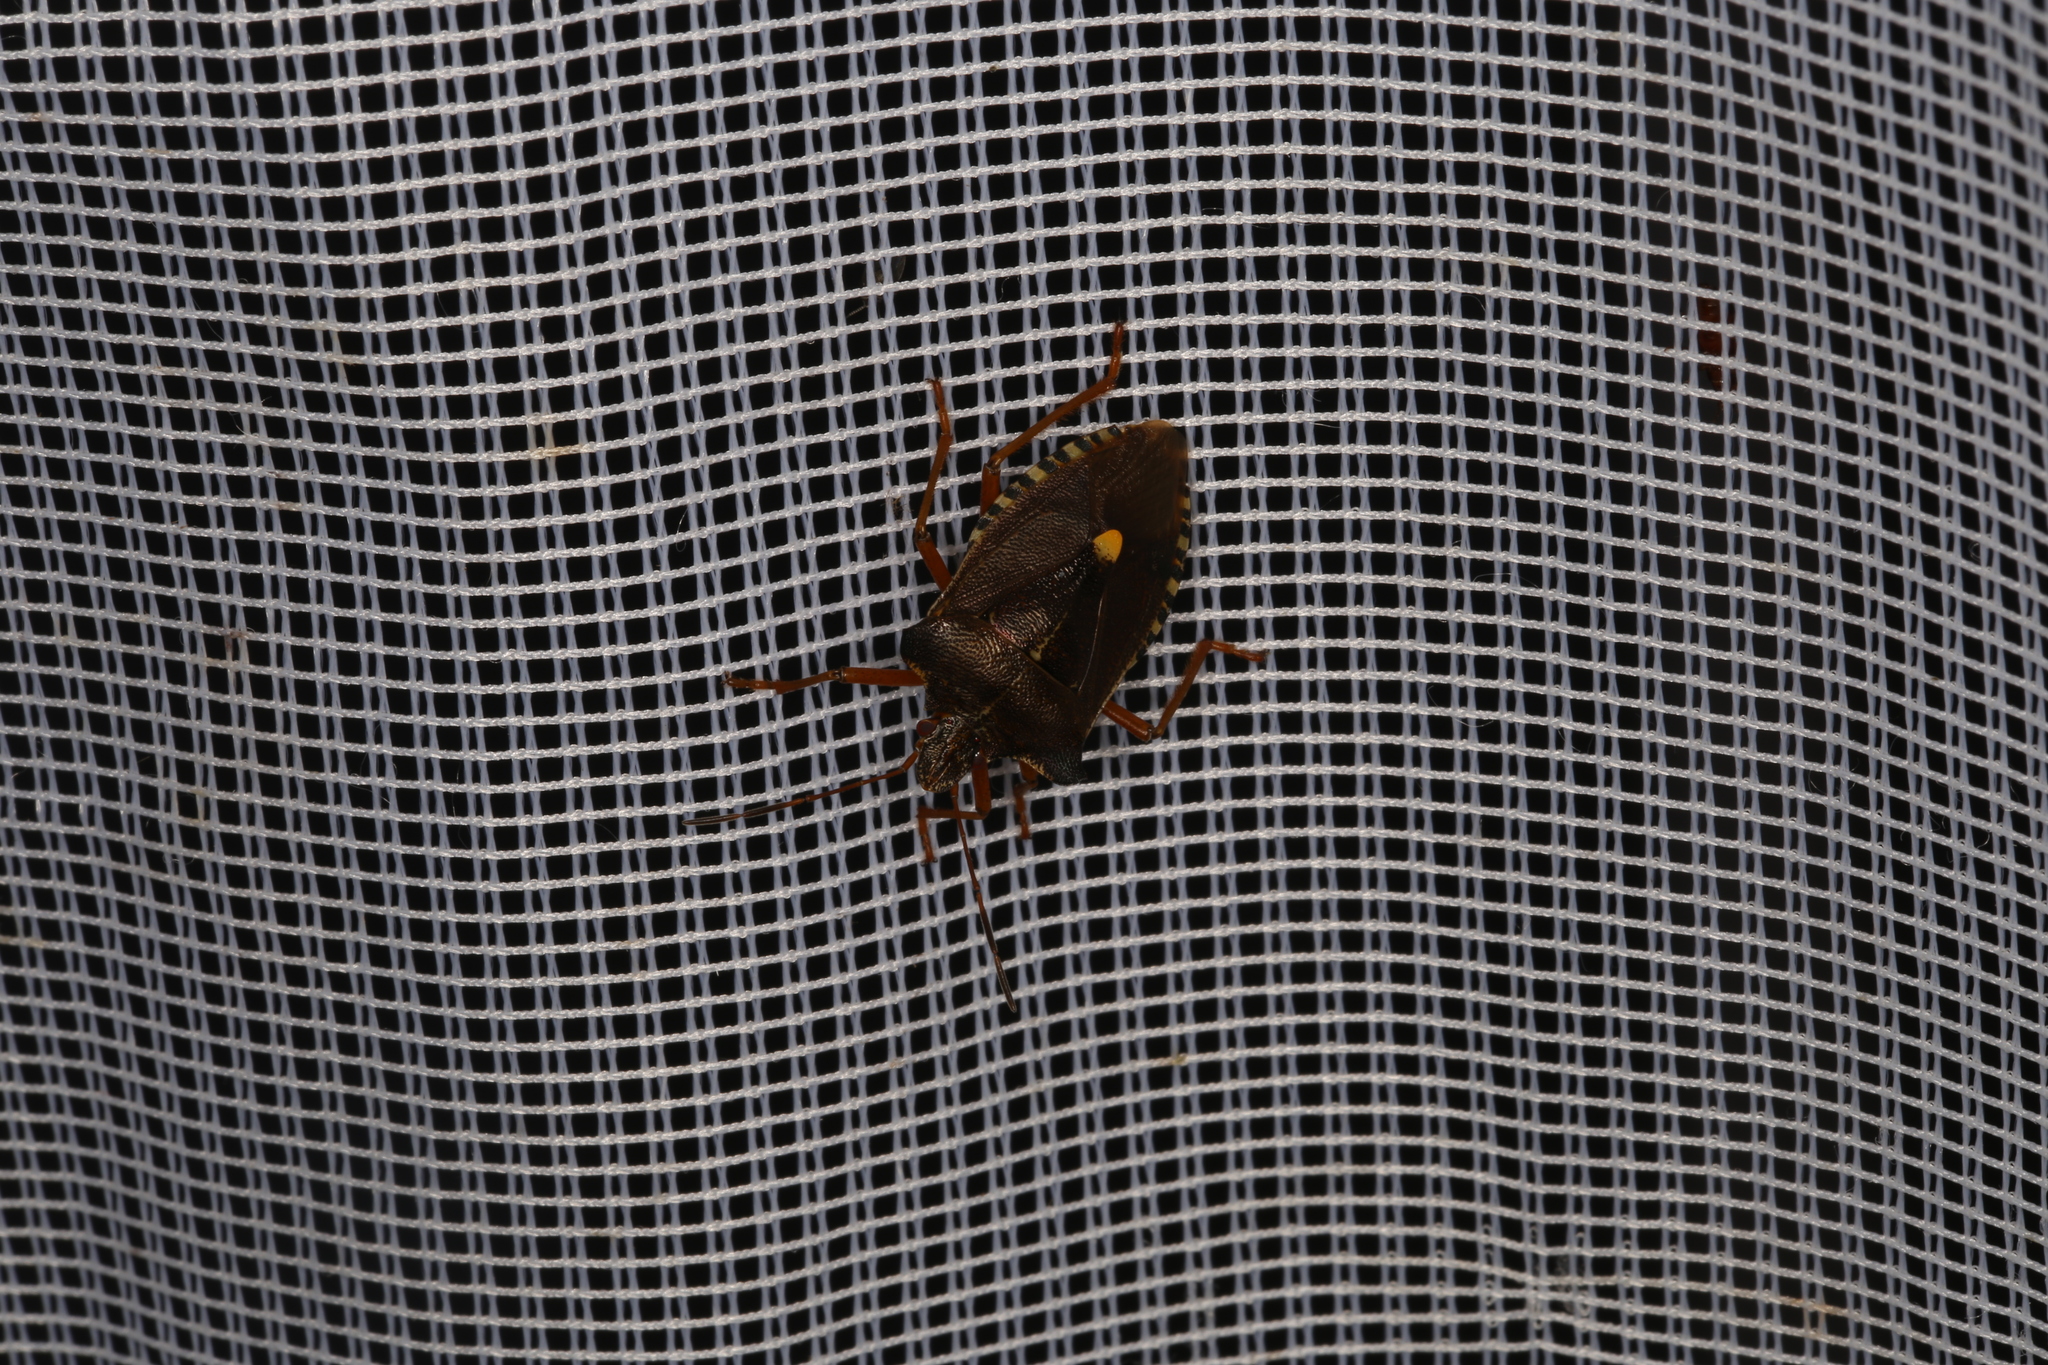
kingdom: Animalia
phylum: Arthropoda
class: Insecta
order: Hemiptera
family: Pentatomidae
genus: Pentatoma
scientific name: Pentatoma rufipes
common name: Forest bug
